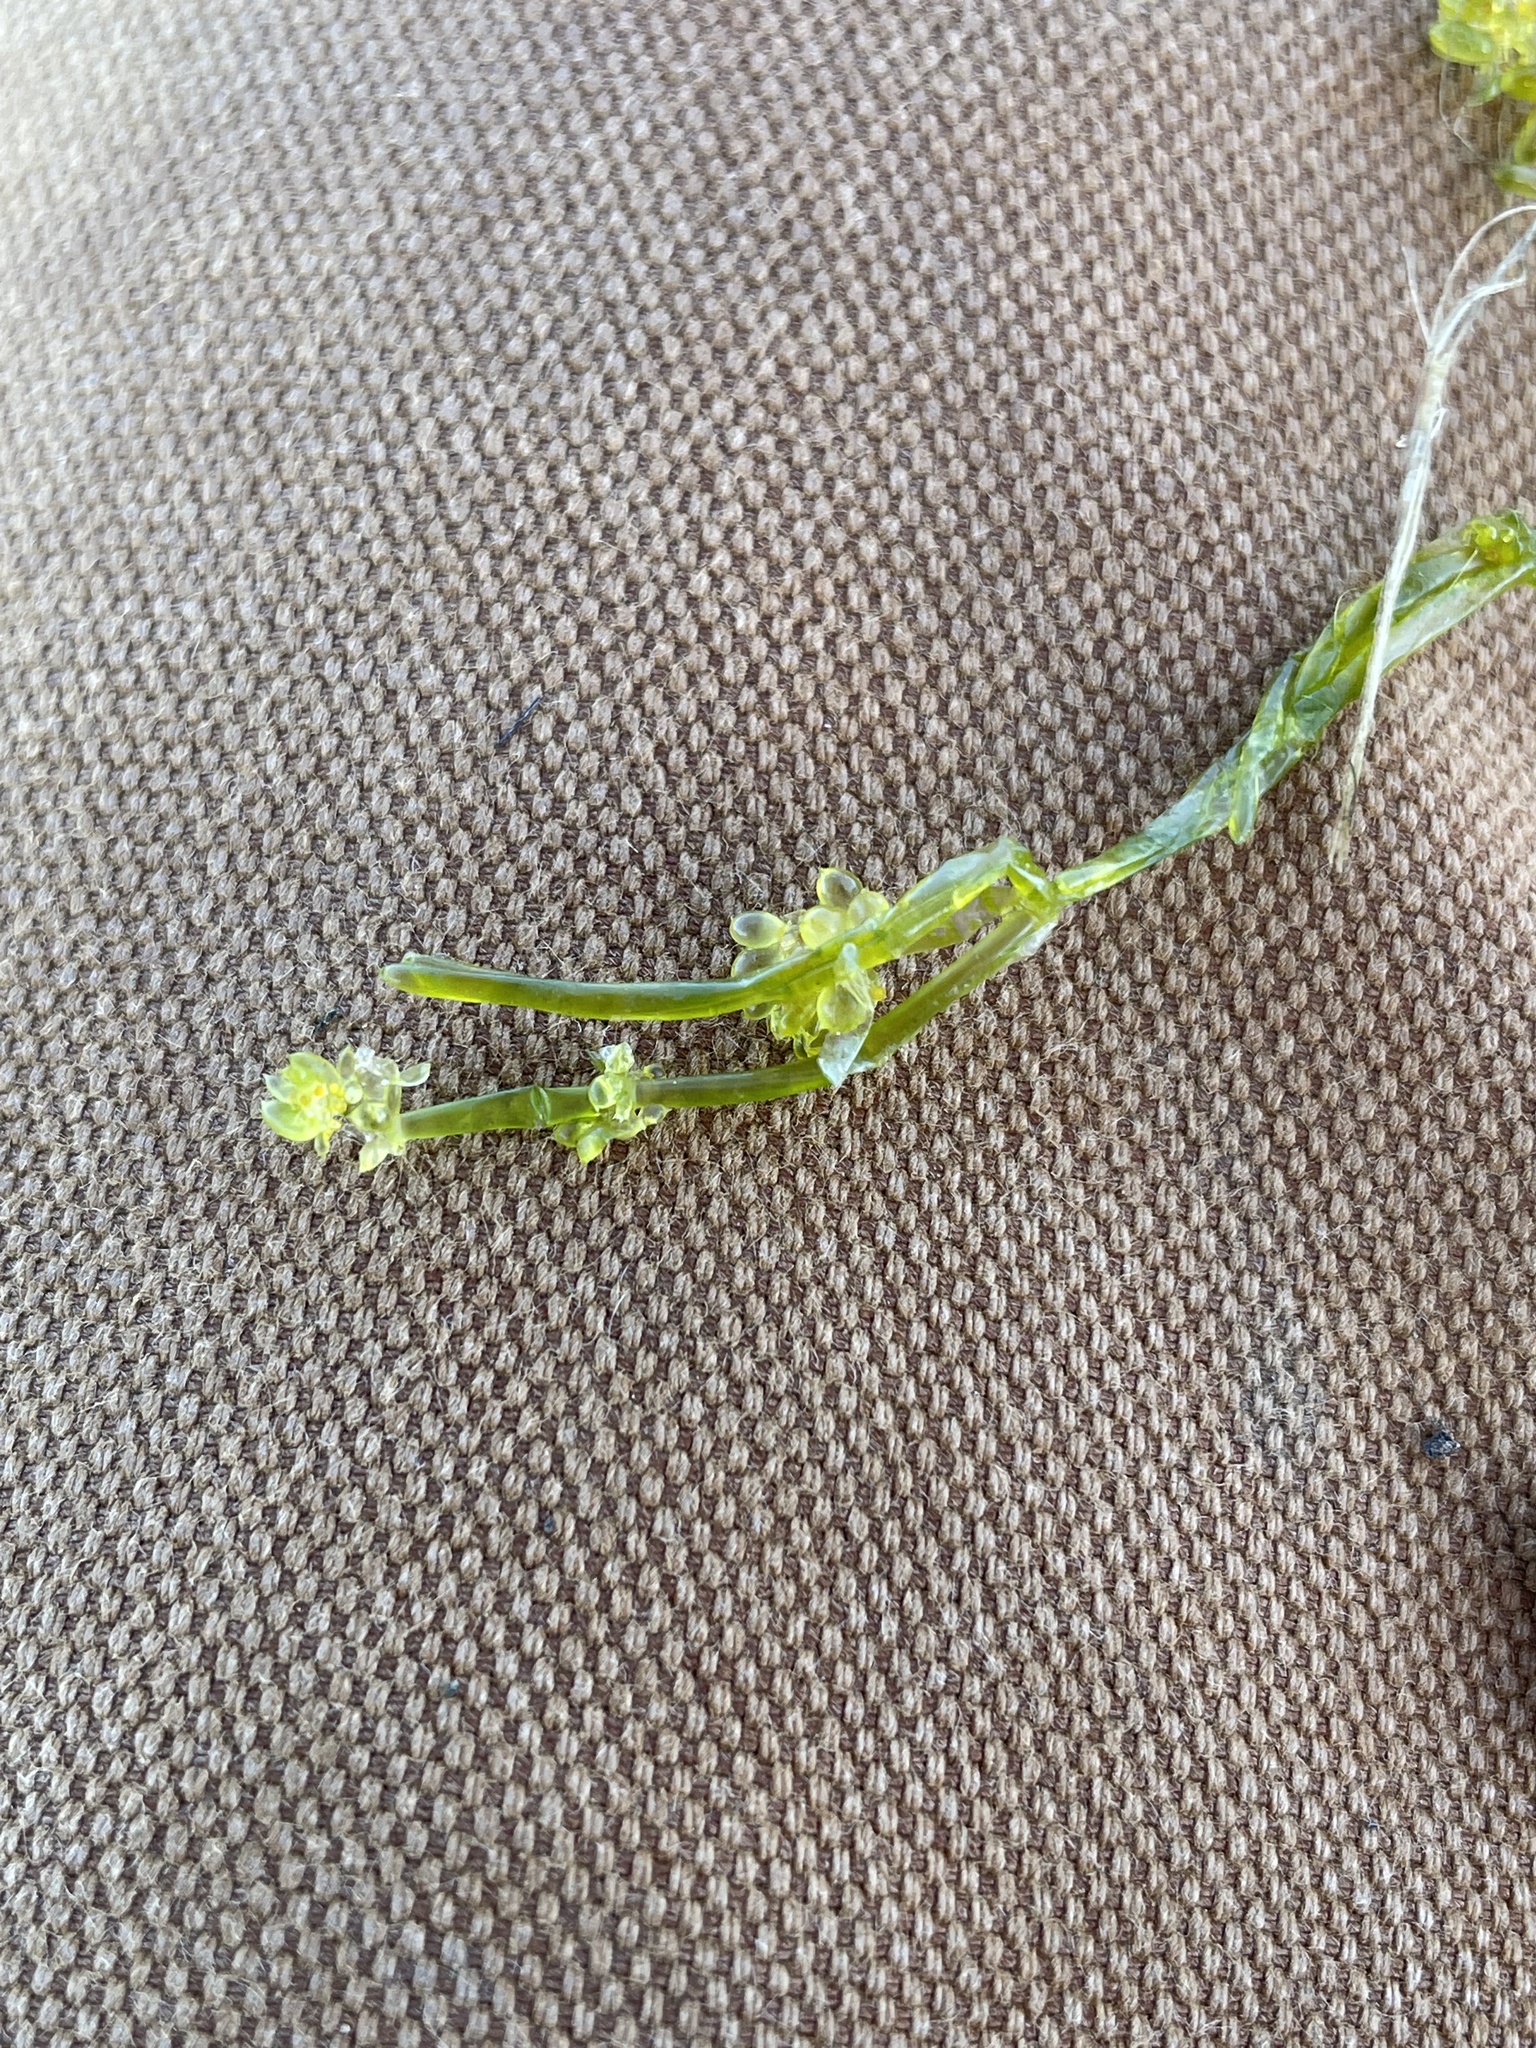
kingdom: Plantae
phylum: Charophyta
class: Charophyceae
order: Charales
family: Characeae
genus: Nitella
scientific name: Nitella clavata
